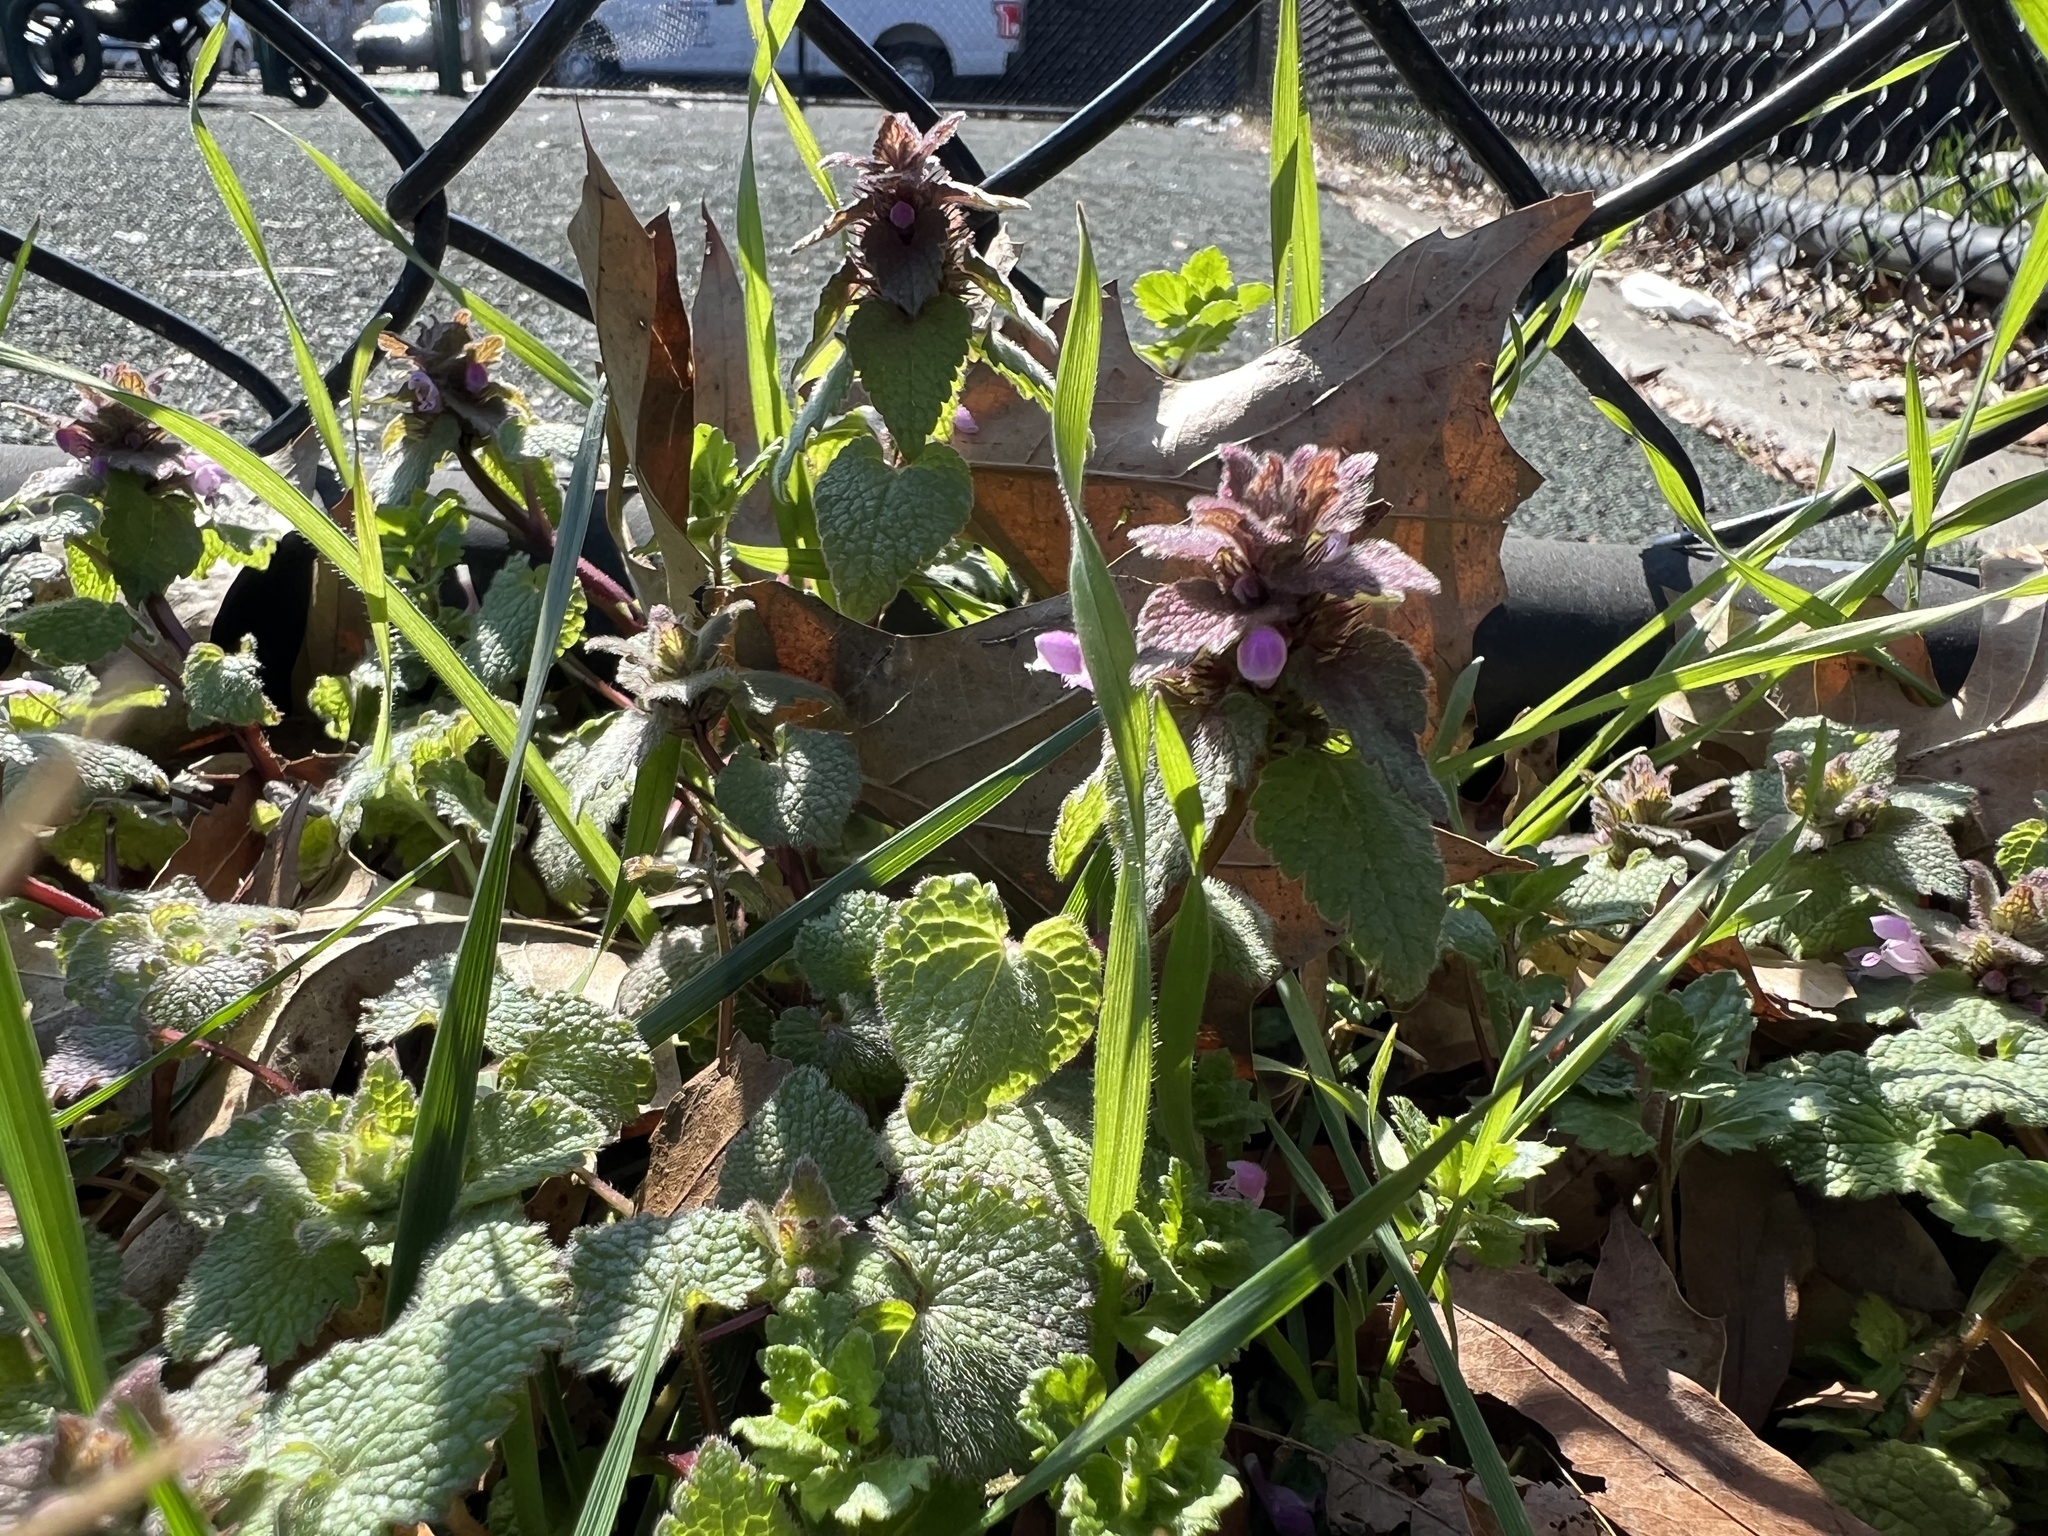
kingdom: Plantae
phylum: Tracheophyta
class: Magnoliopsida
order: Lamiales
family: Lamiaceae
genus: Lamium
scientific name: Lamium purpureum
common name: Red dead-nettle
